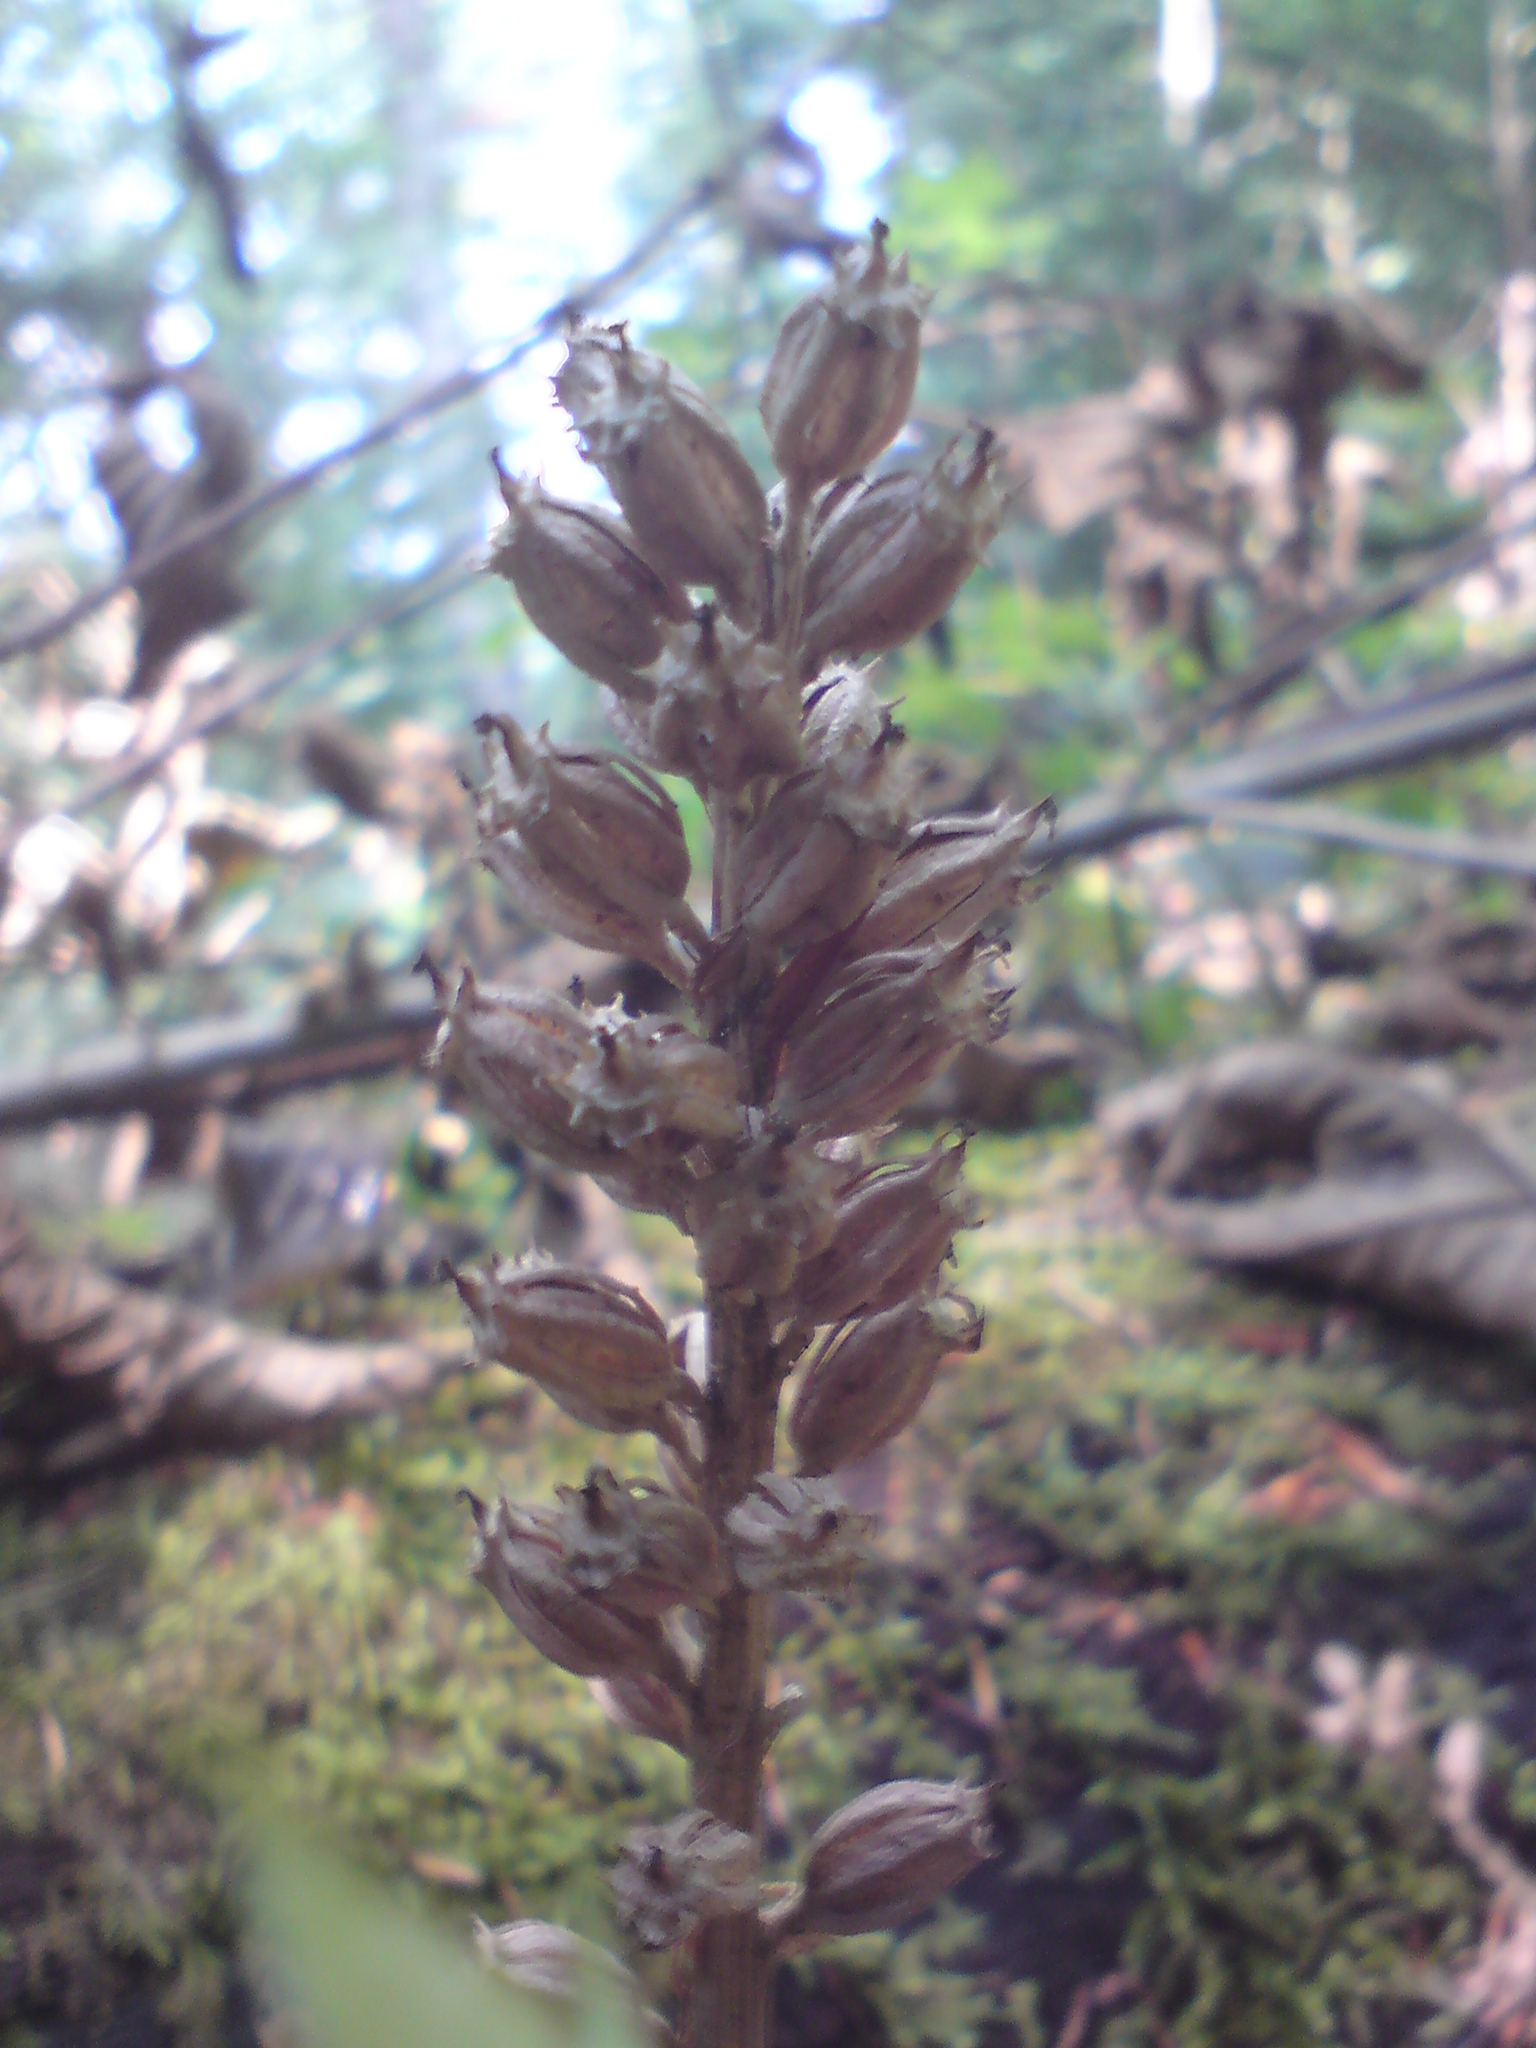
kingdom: Plantae
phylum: Tracheophyta
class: Liliopsida
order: Asparagales
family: Orchidaceae
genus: Neottia
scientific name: Neottia nidus-avis
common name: Bird's-nest orchid
